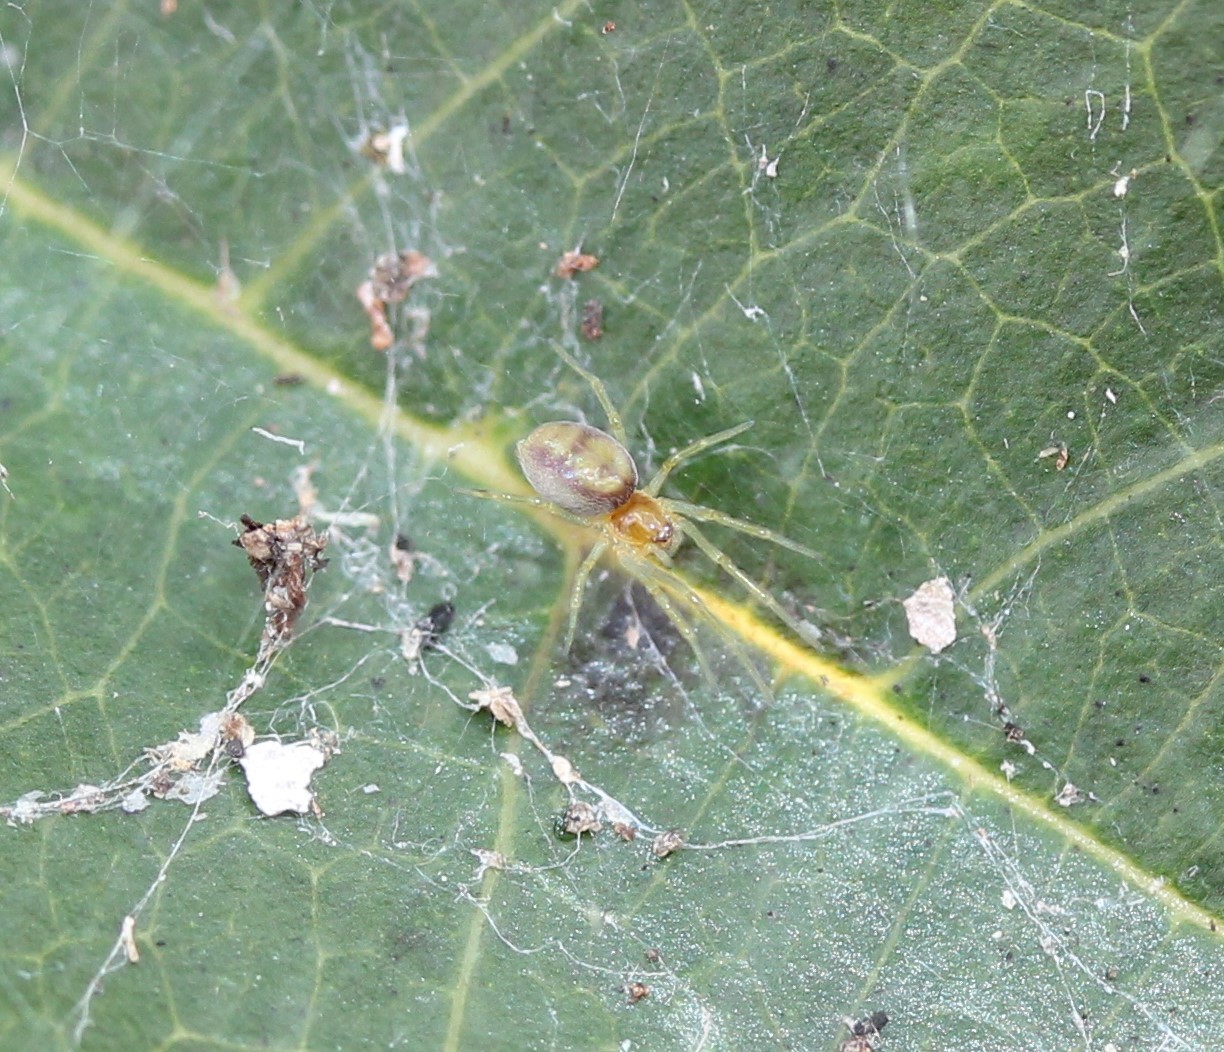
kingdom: Animalia
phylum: Arthropoda
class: Arachnida
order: Araneae
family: Dictynidae
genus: Emblyna
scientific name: Emblyna florens
